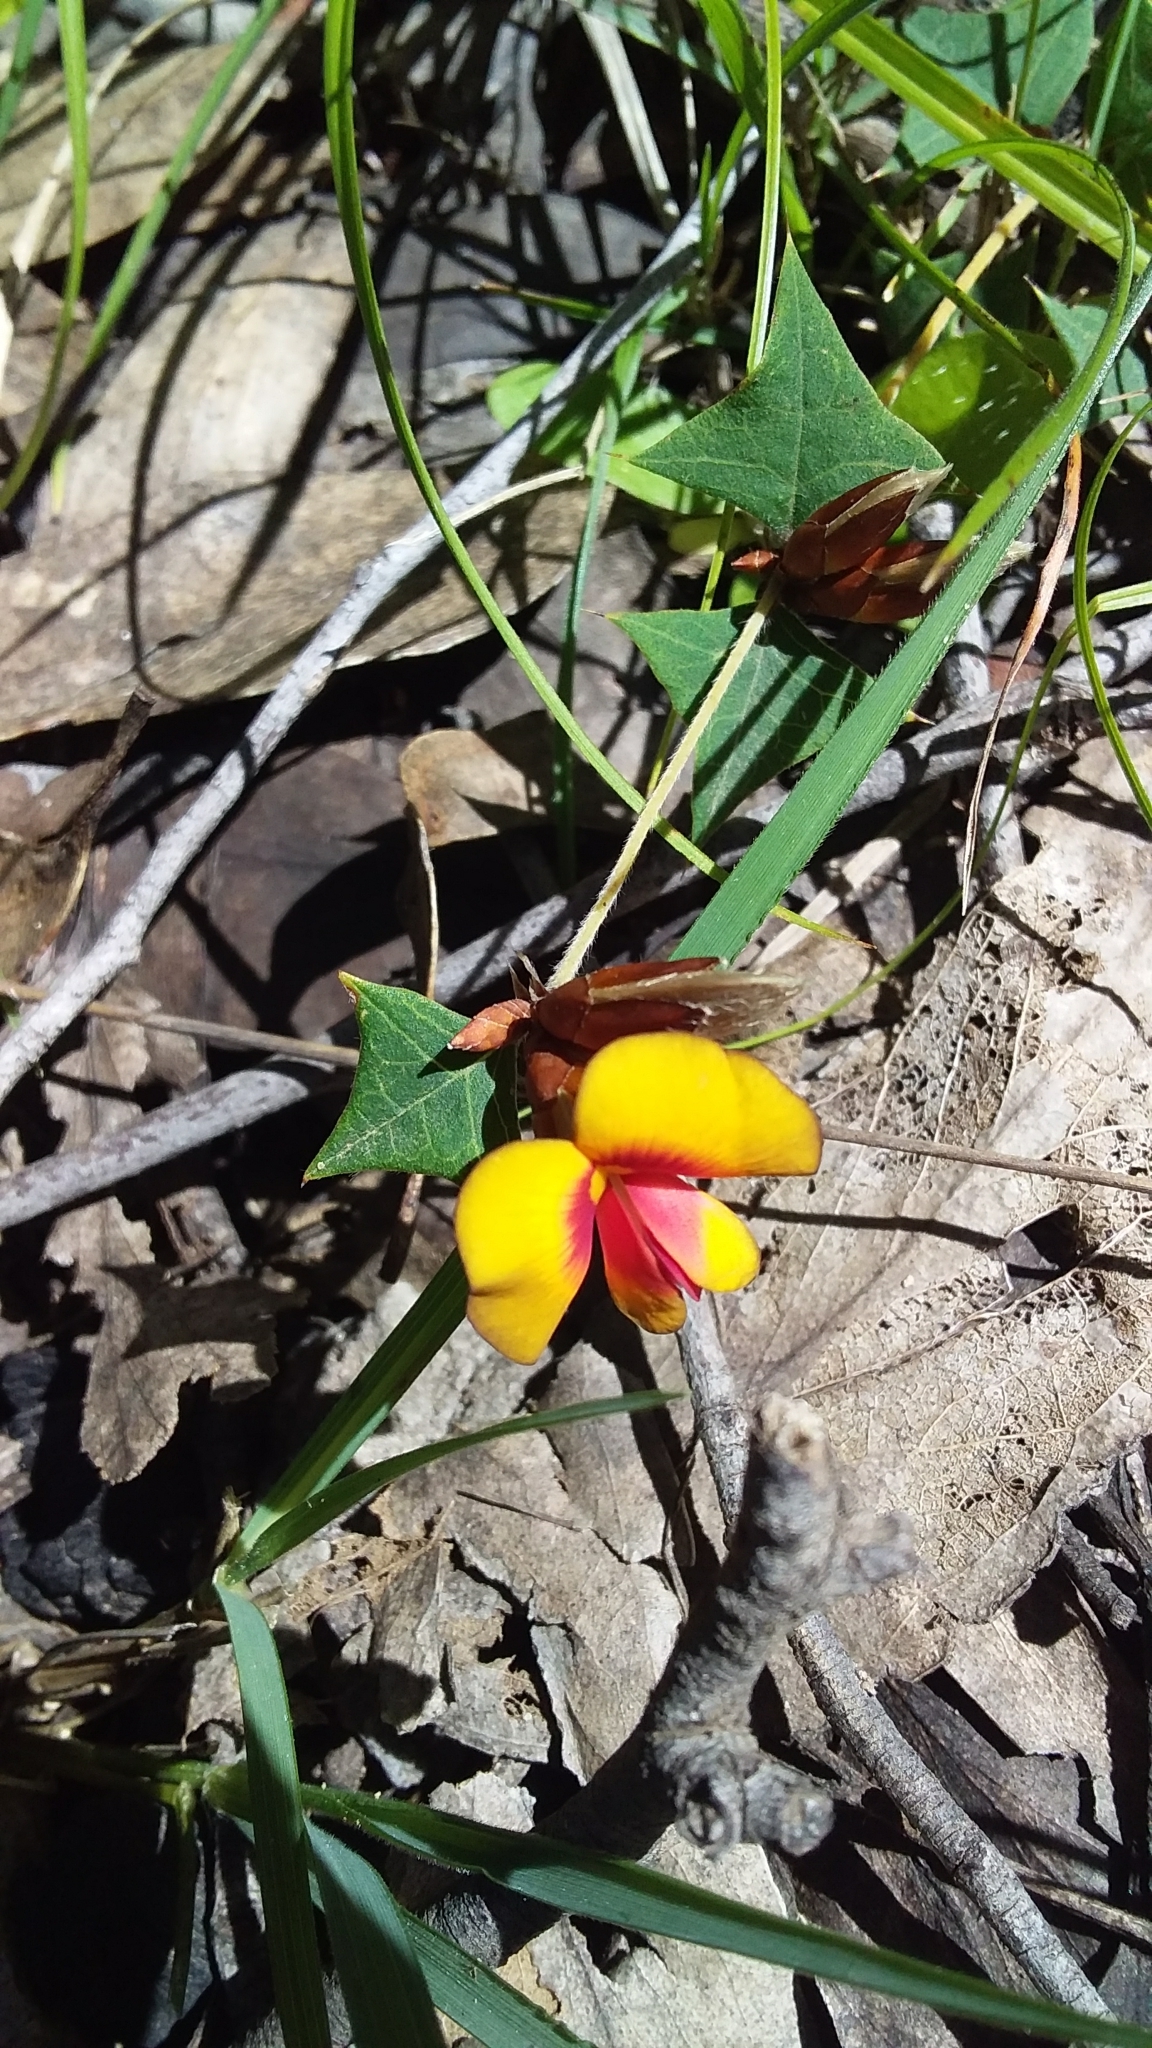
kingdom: Plantae
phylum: Tracheophyta
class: Magnoliopsida
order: Fabales
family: Fabaceae
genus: Platylobium
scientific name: Platylobium obtusangulum
